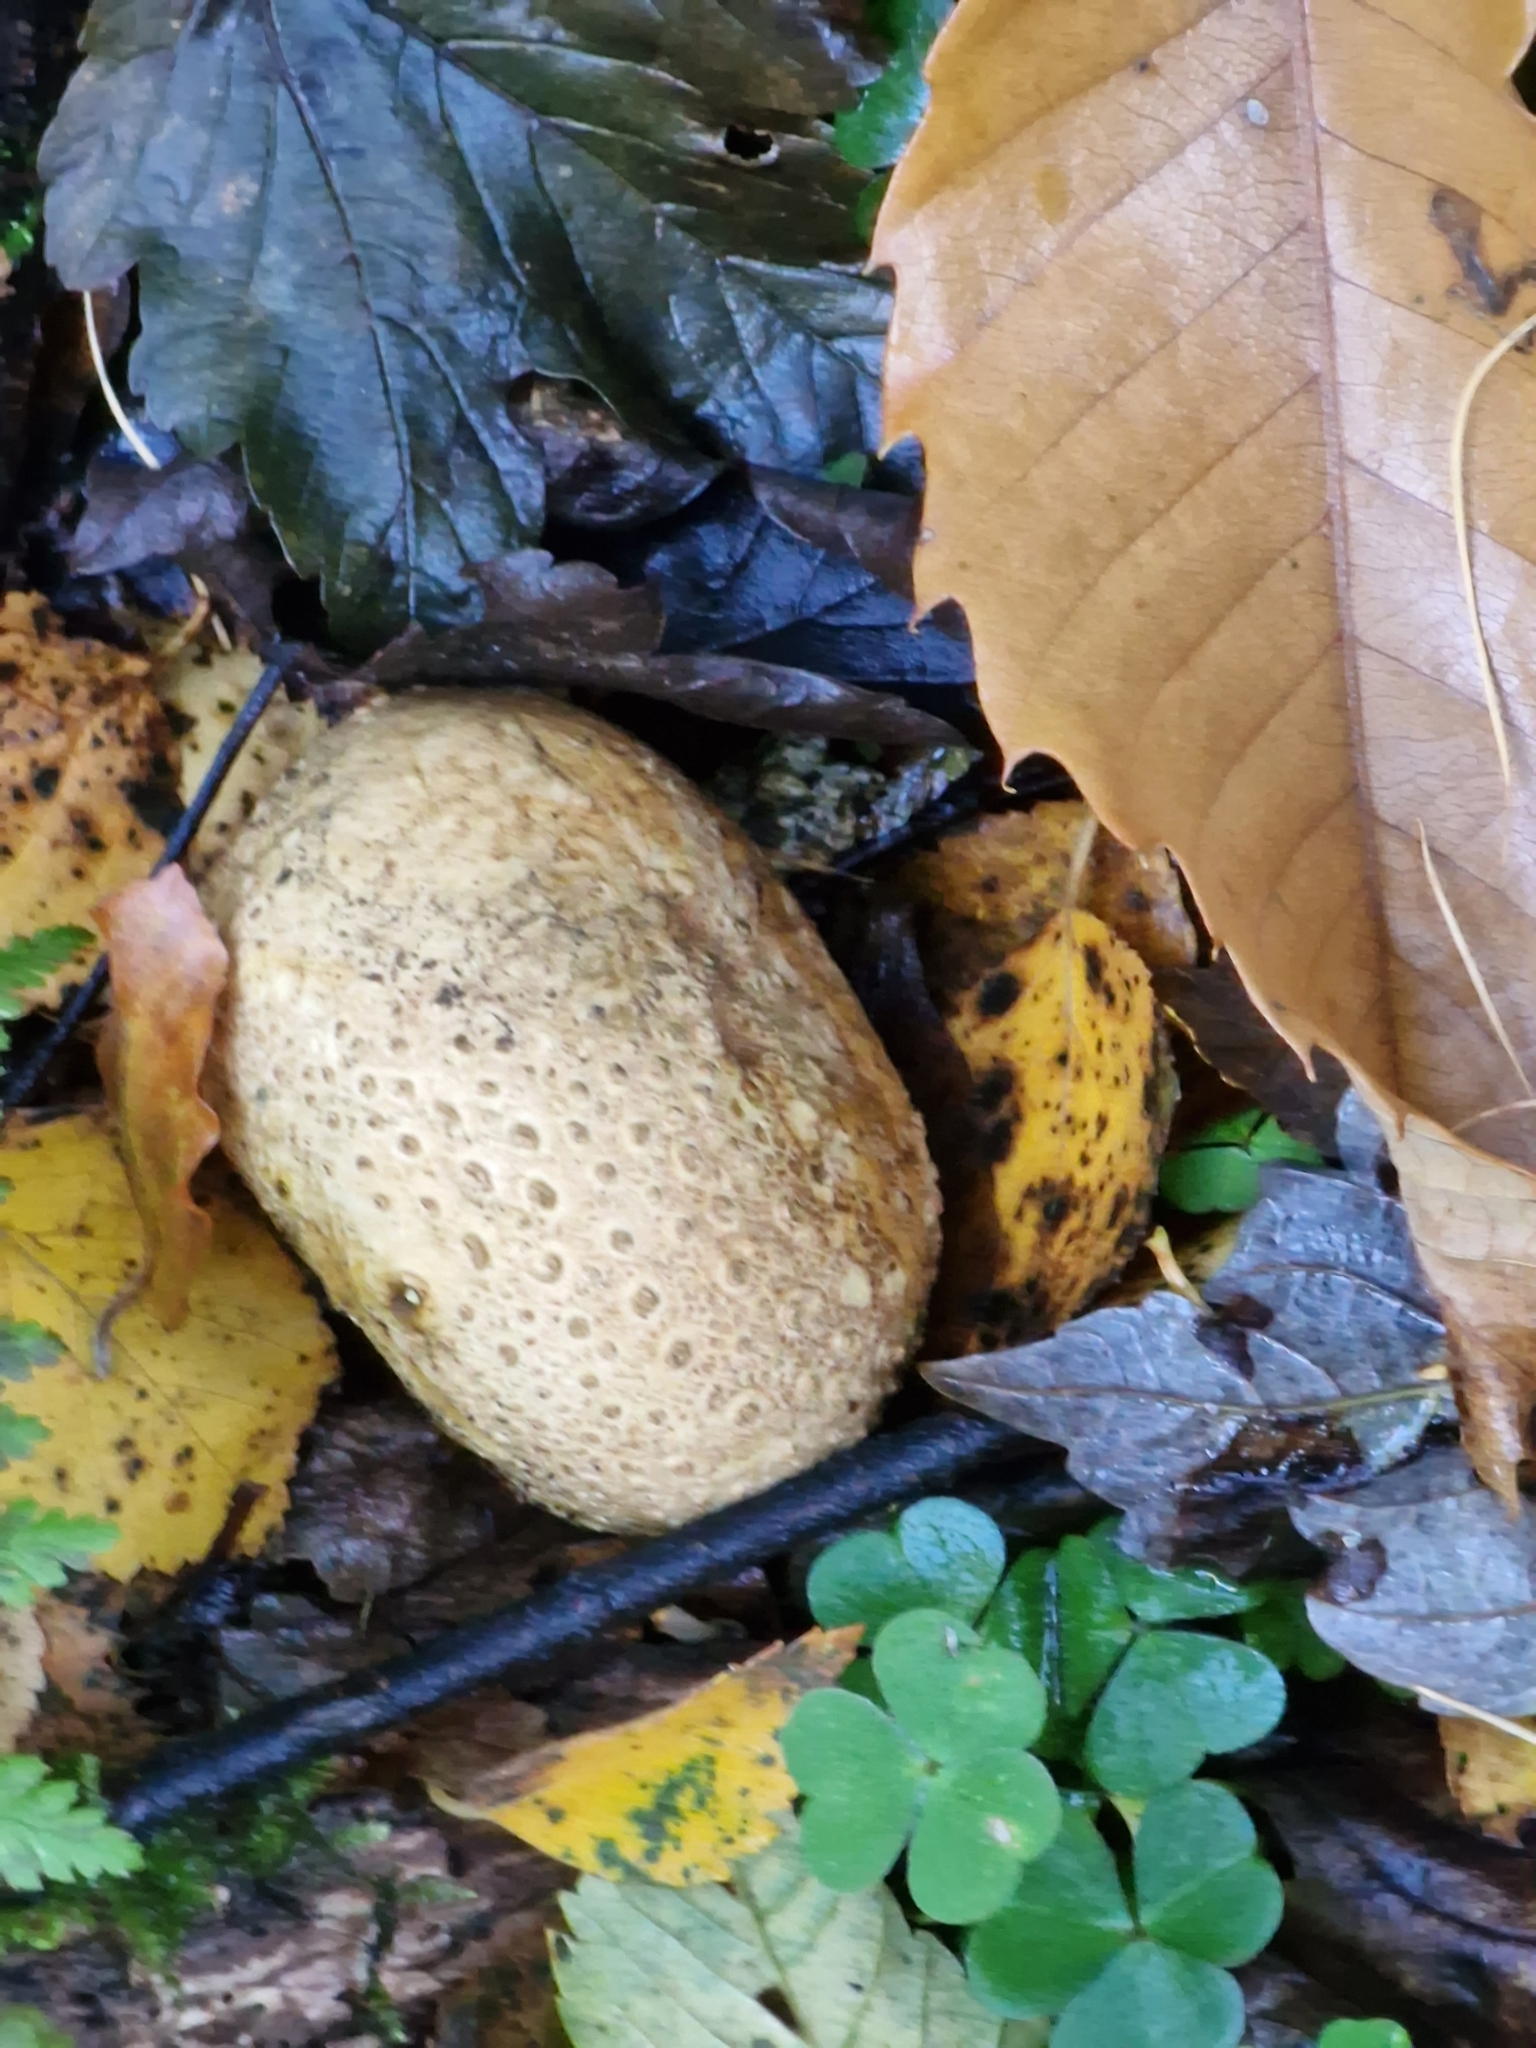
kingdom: Fungi
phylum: Basidiomycota
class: Agaricomycetes
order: Boletales
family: Sclerodermataceae
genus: Scleroderma
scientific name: Scleroderma citrinum
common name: Common earthball
